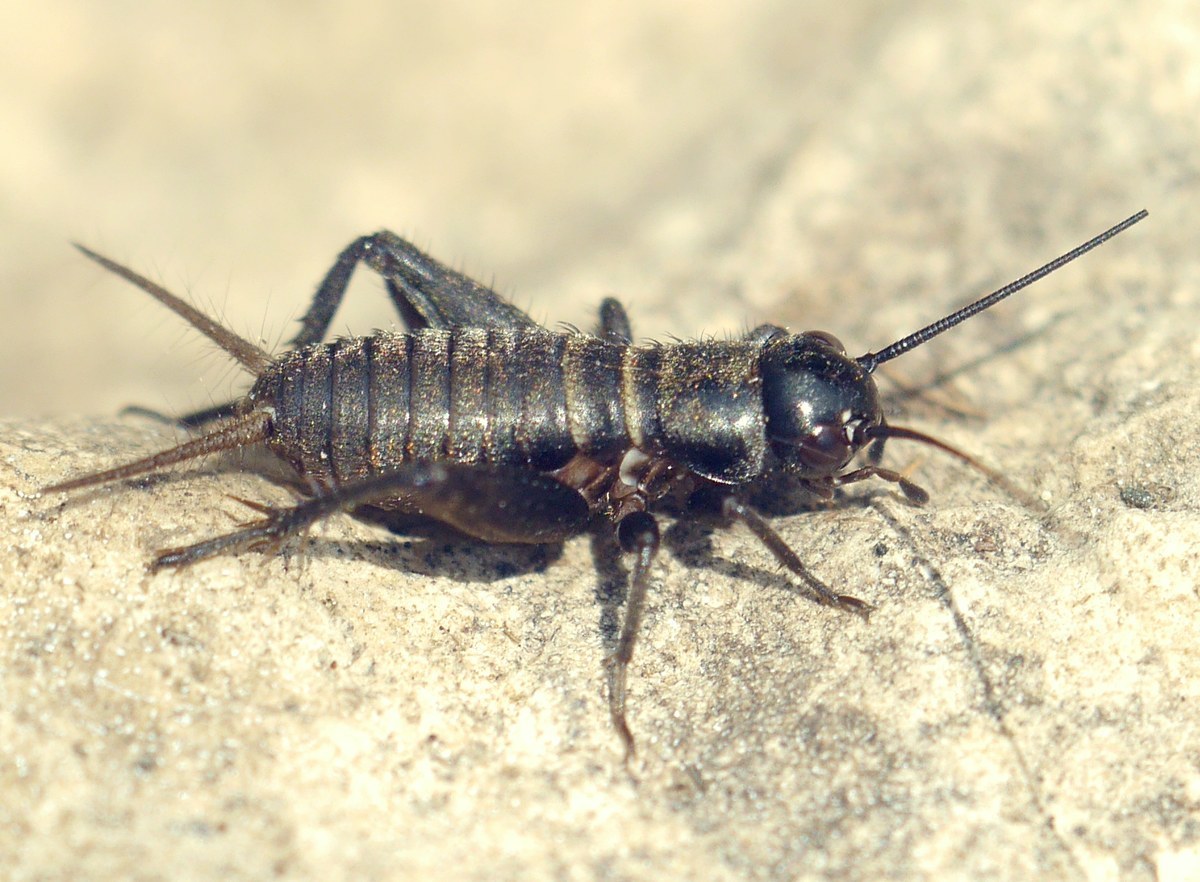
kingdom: Animalia
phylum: Arthropoda
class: Insecta
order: Orthoptera
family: Gryllidae
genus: Melanogryllus
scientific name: Melanogryllus desertus
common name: Desert cricket
